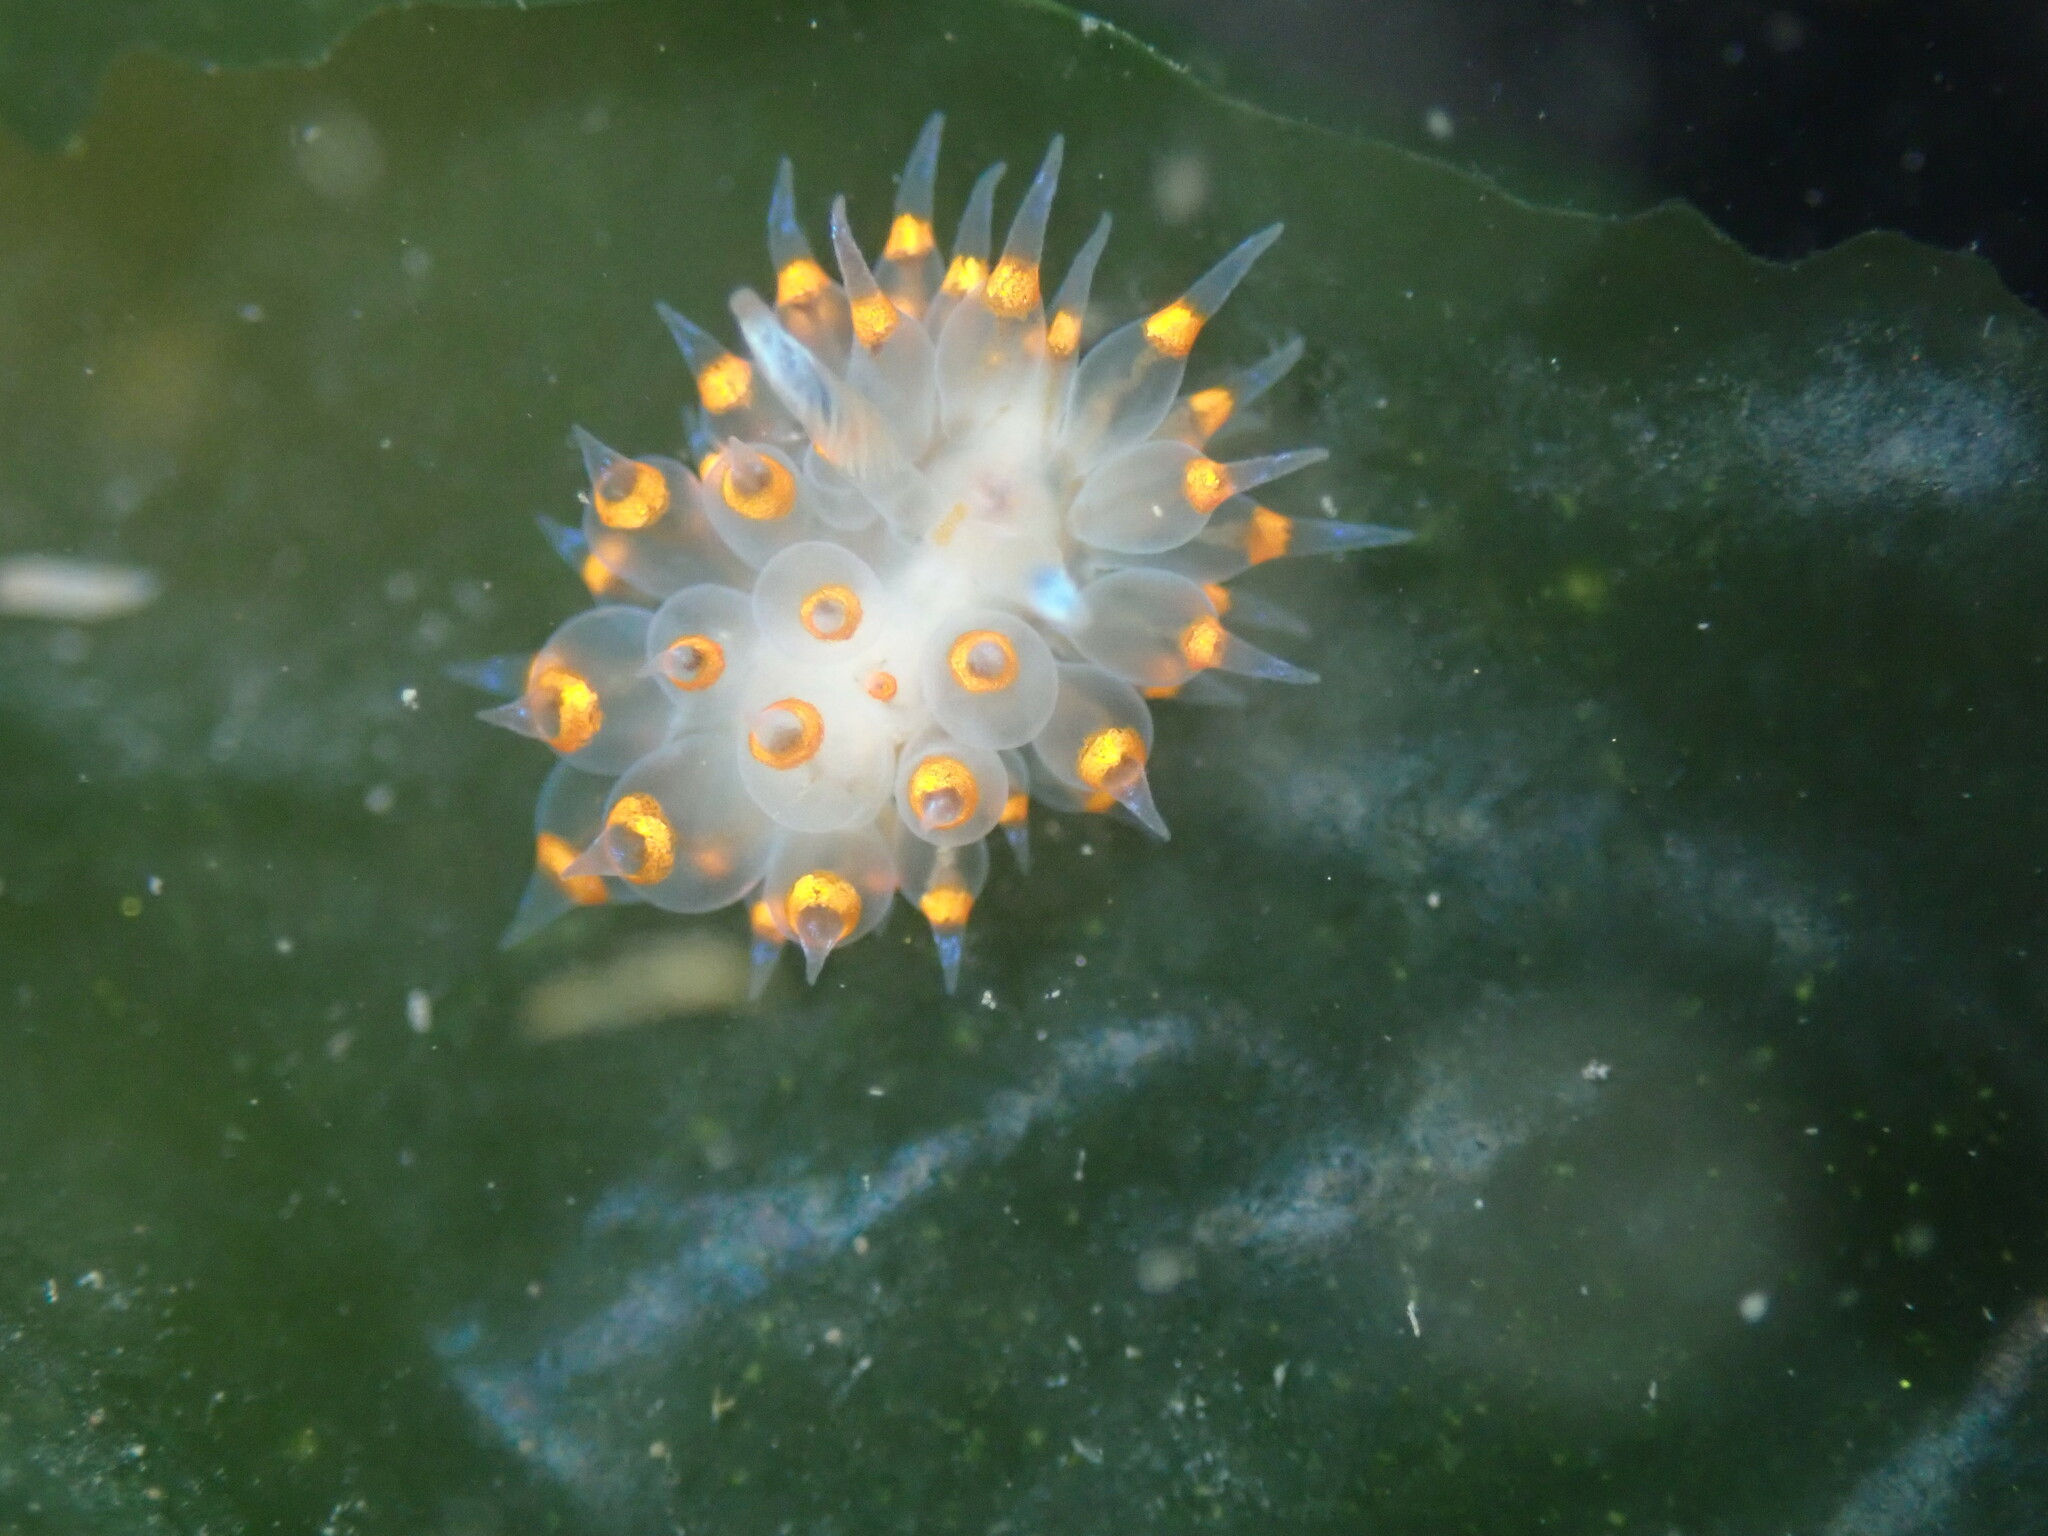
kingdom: Animalia
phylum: Mollusca
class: Gastropoda
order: Nudibranchia
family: Janolidae
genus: Antiopella
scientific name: Antiopella barbarensis
